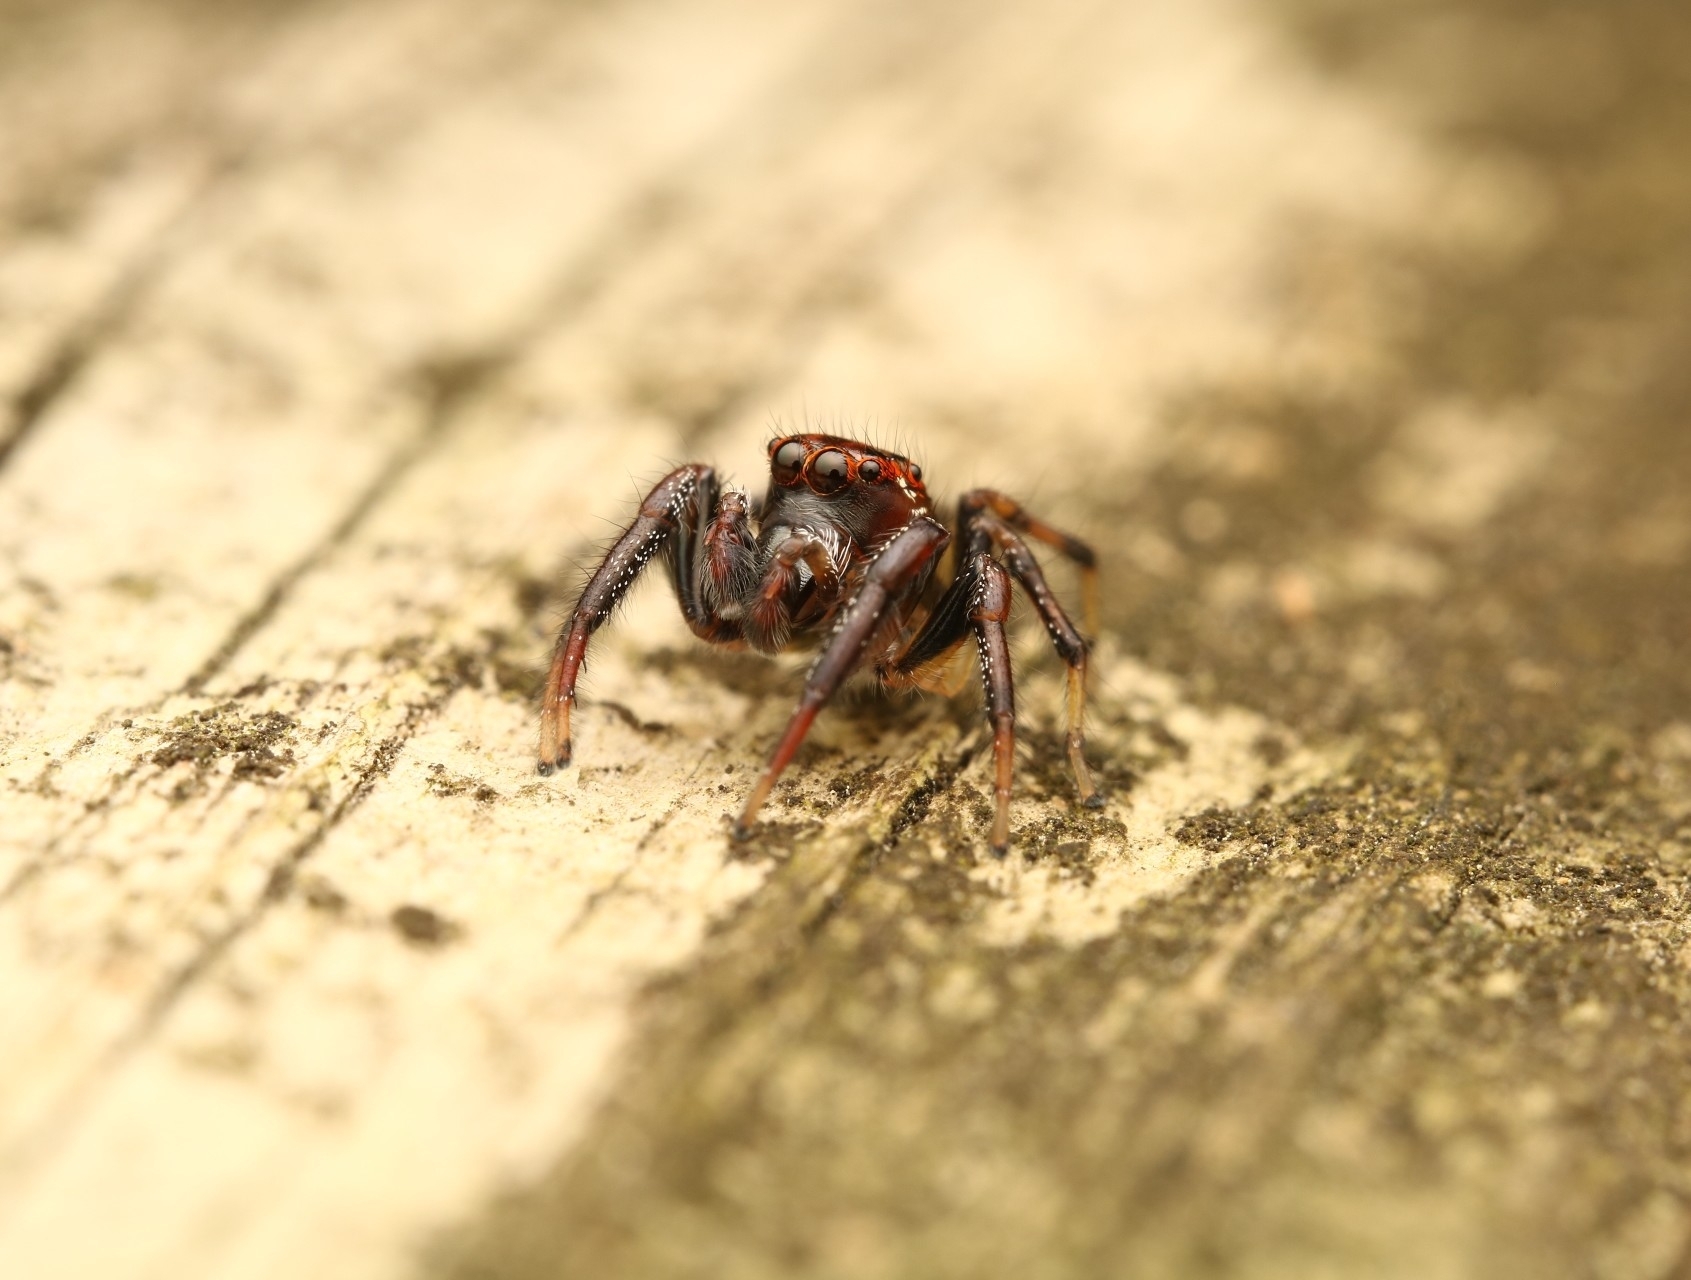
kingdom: Animalia
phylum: Arthropoda
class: Arachnida
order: Araneae
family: Salticidae
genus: Colonus
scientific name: Colonus sylvanus
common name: Jumping spiders
